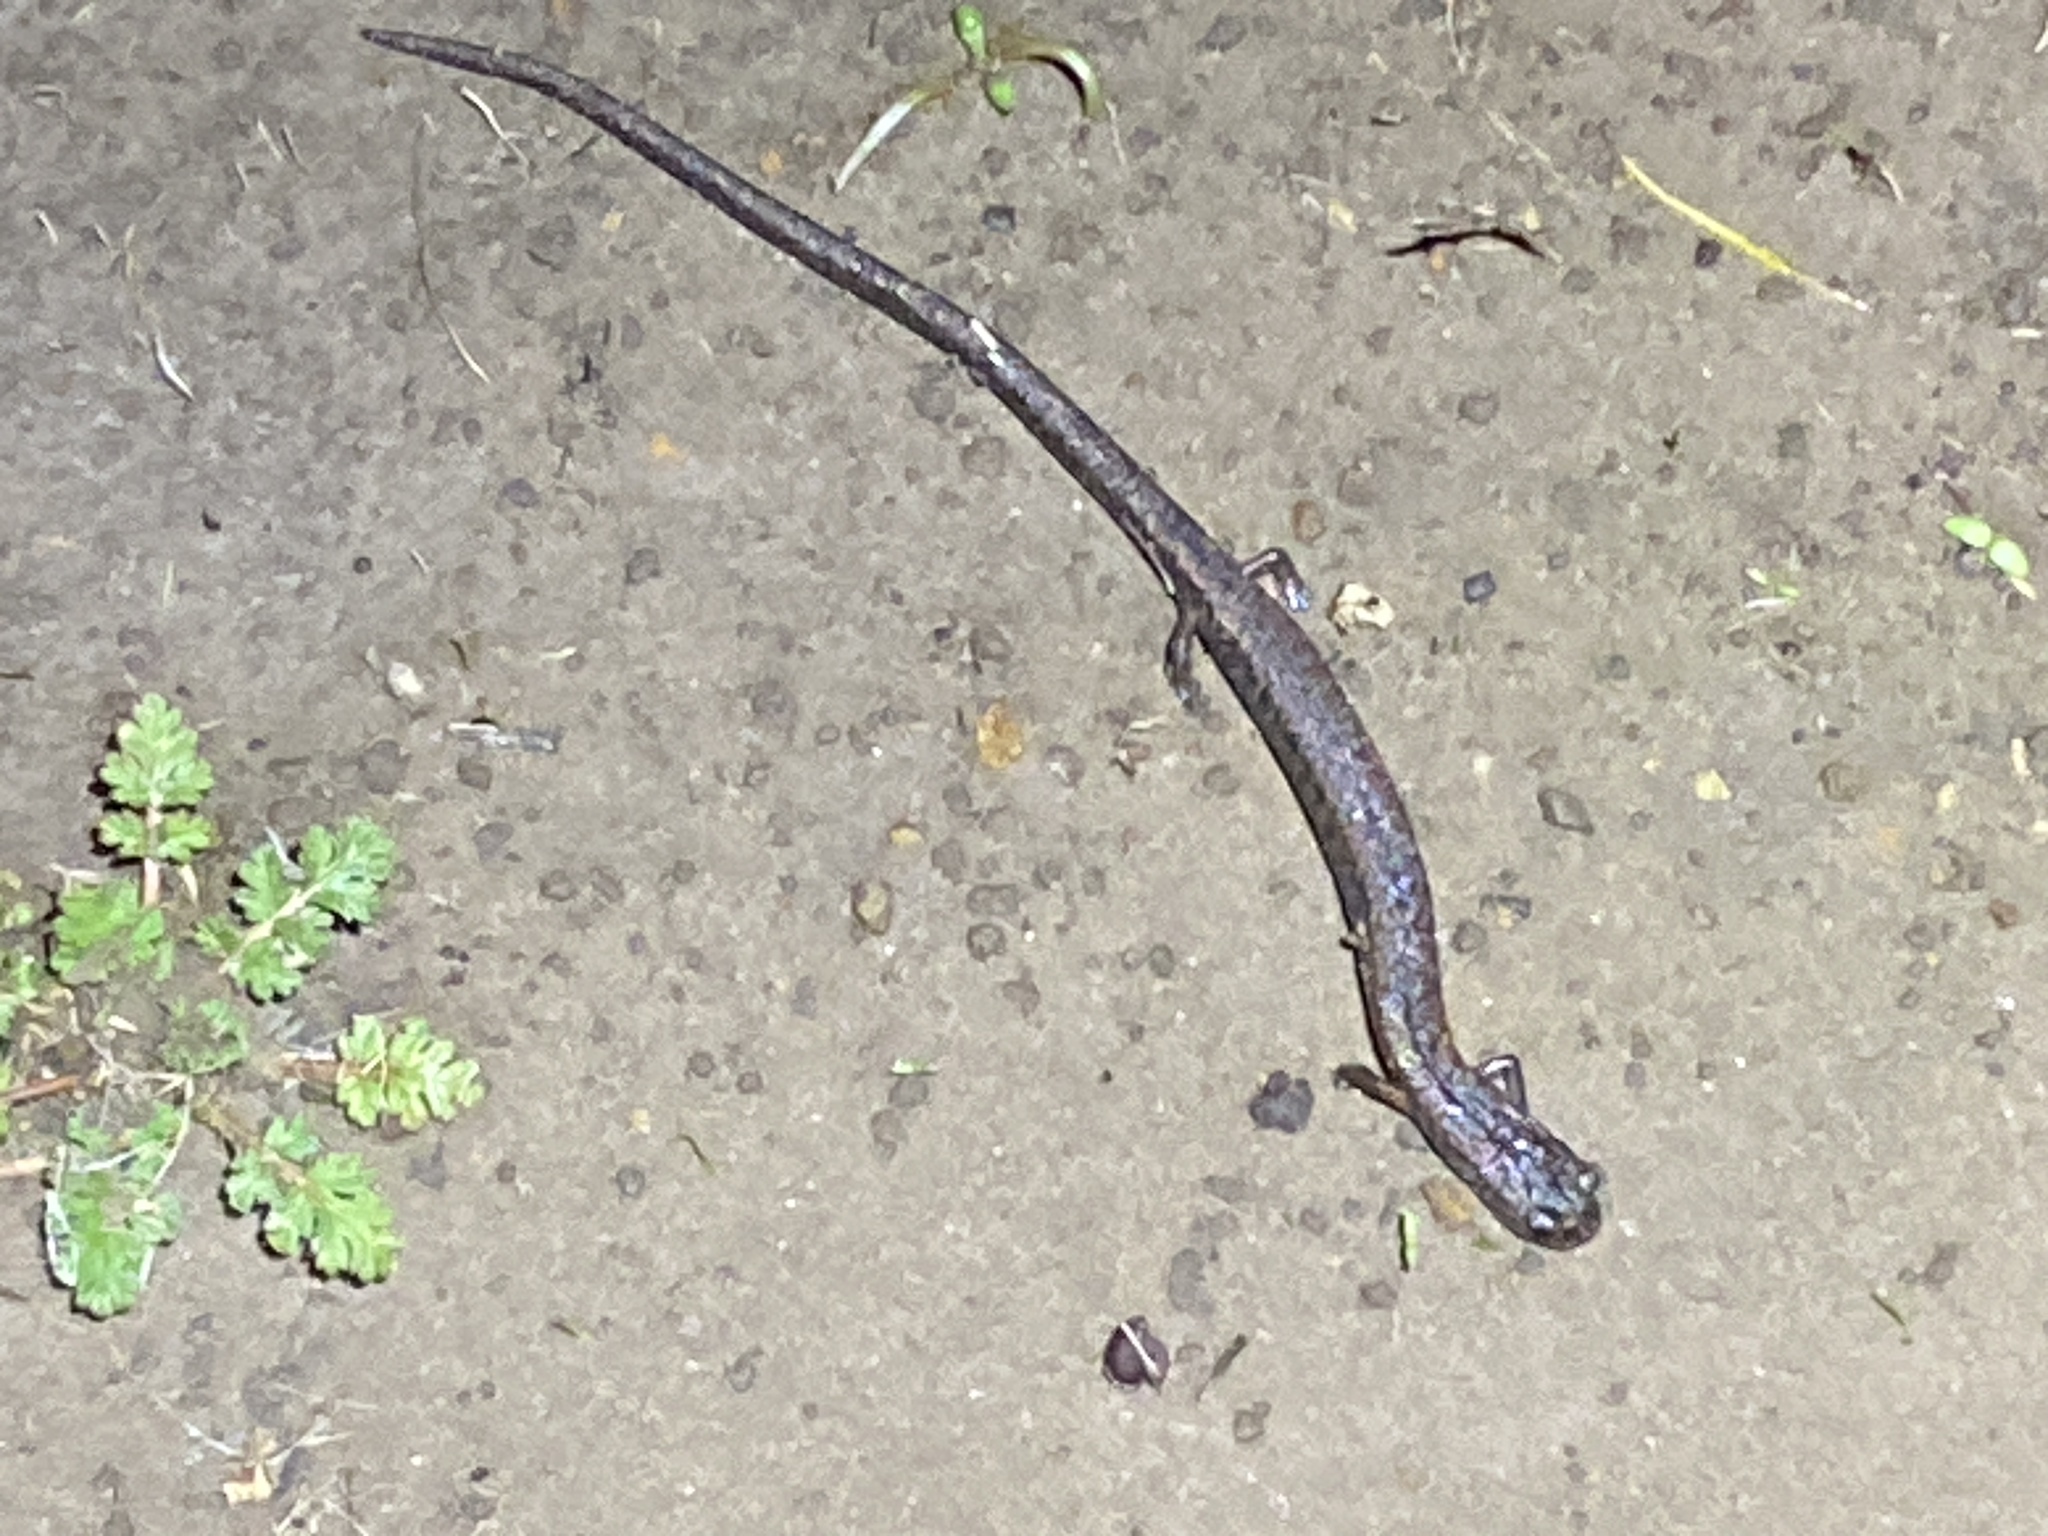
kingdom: Animalia
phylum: Chordata
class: Amphibia
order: Caudata
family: Plethodontidae
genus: Batrachoseps
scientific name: Batrachoseps attenuatus
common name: California slender salamander
